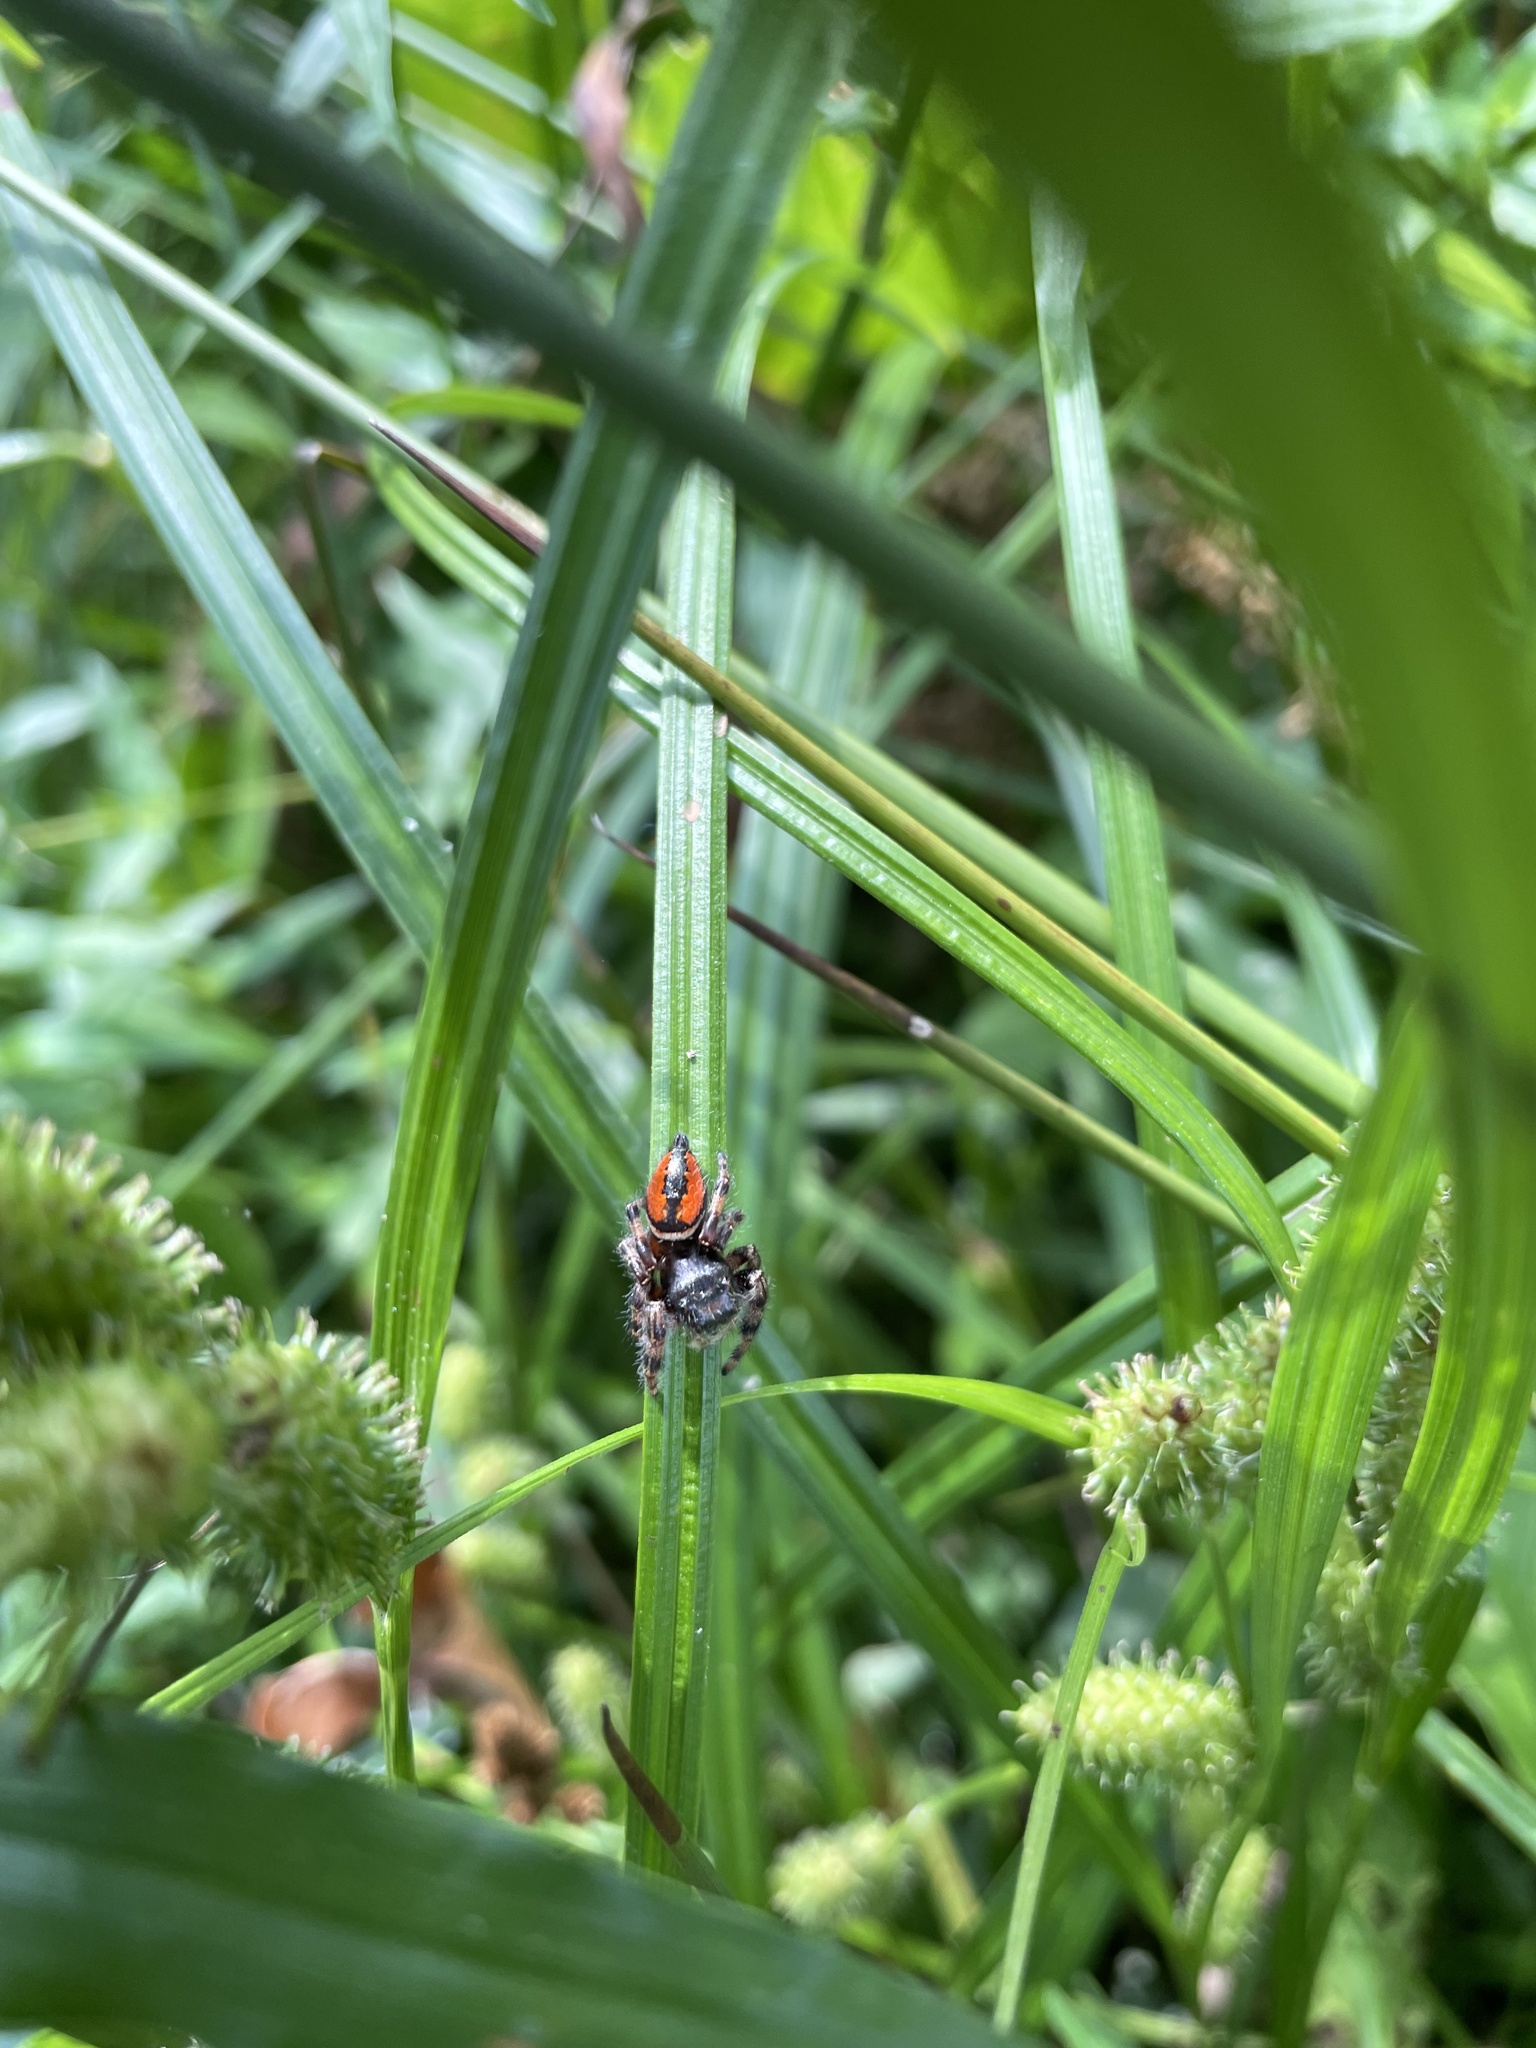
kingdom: Animalia
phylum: Arthropoda
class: Arachnida
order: Araneae
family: Salticidae
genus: Phidippus
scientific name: Phidippus clarus
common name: Brilliant jumping spider
